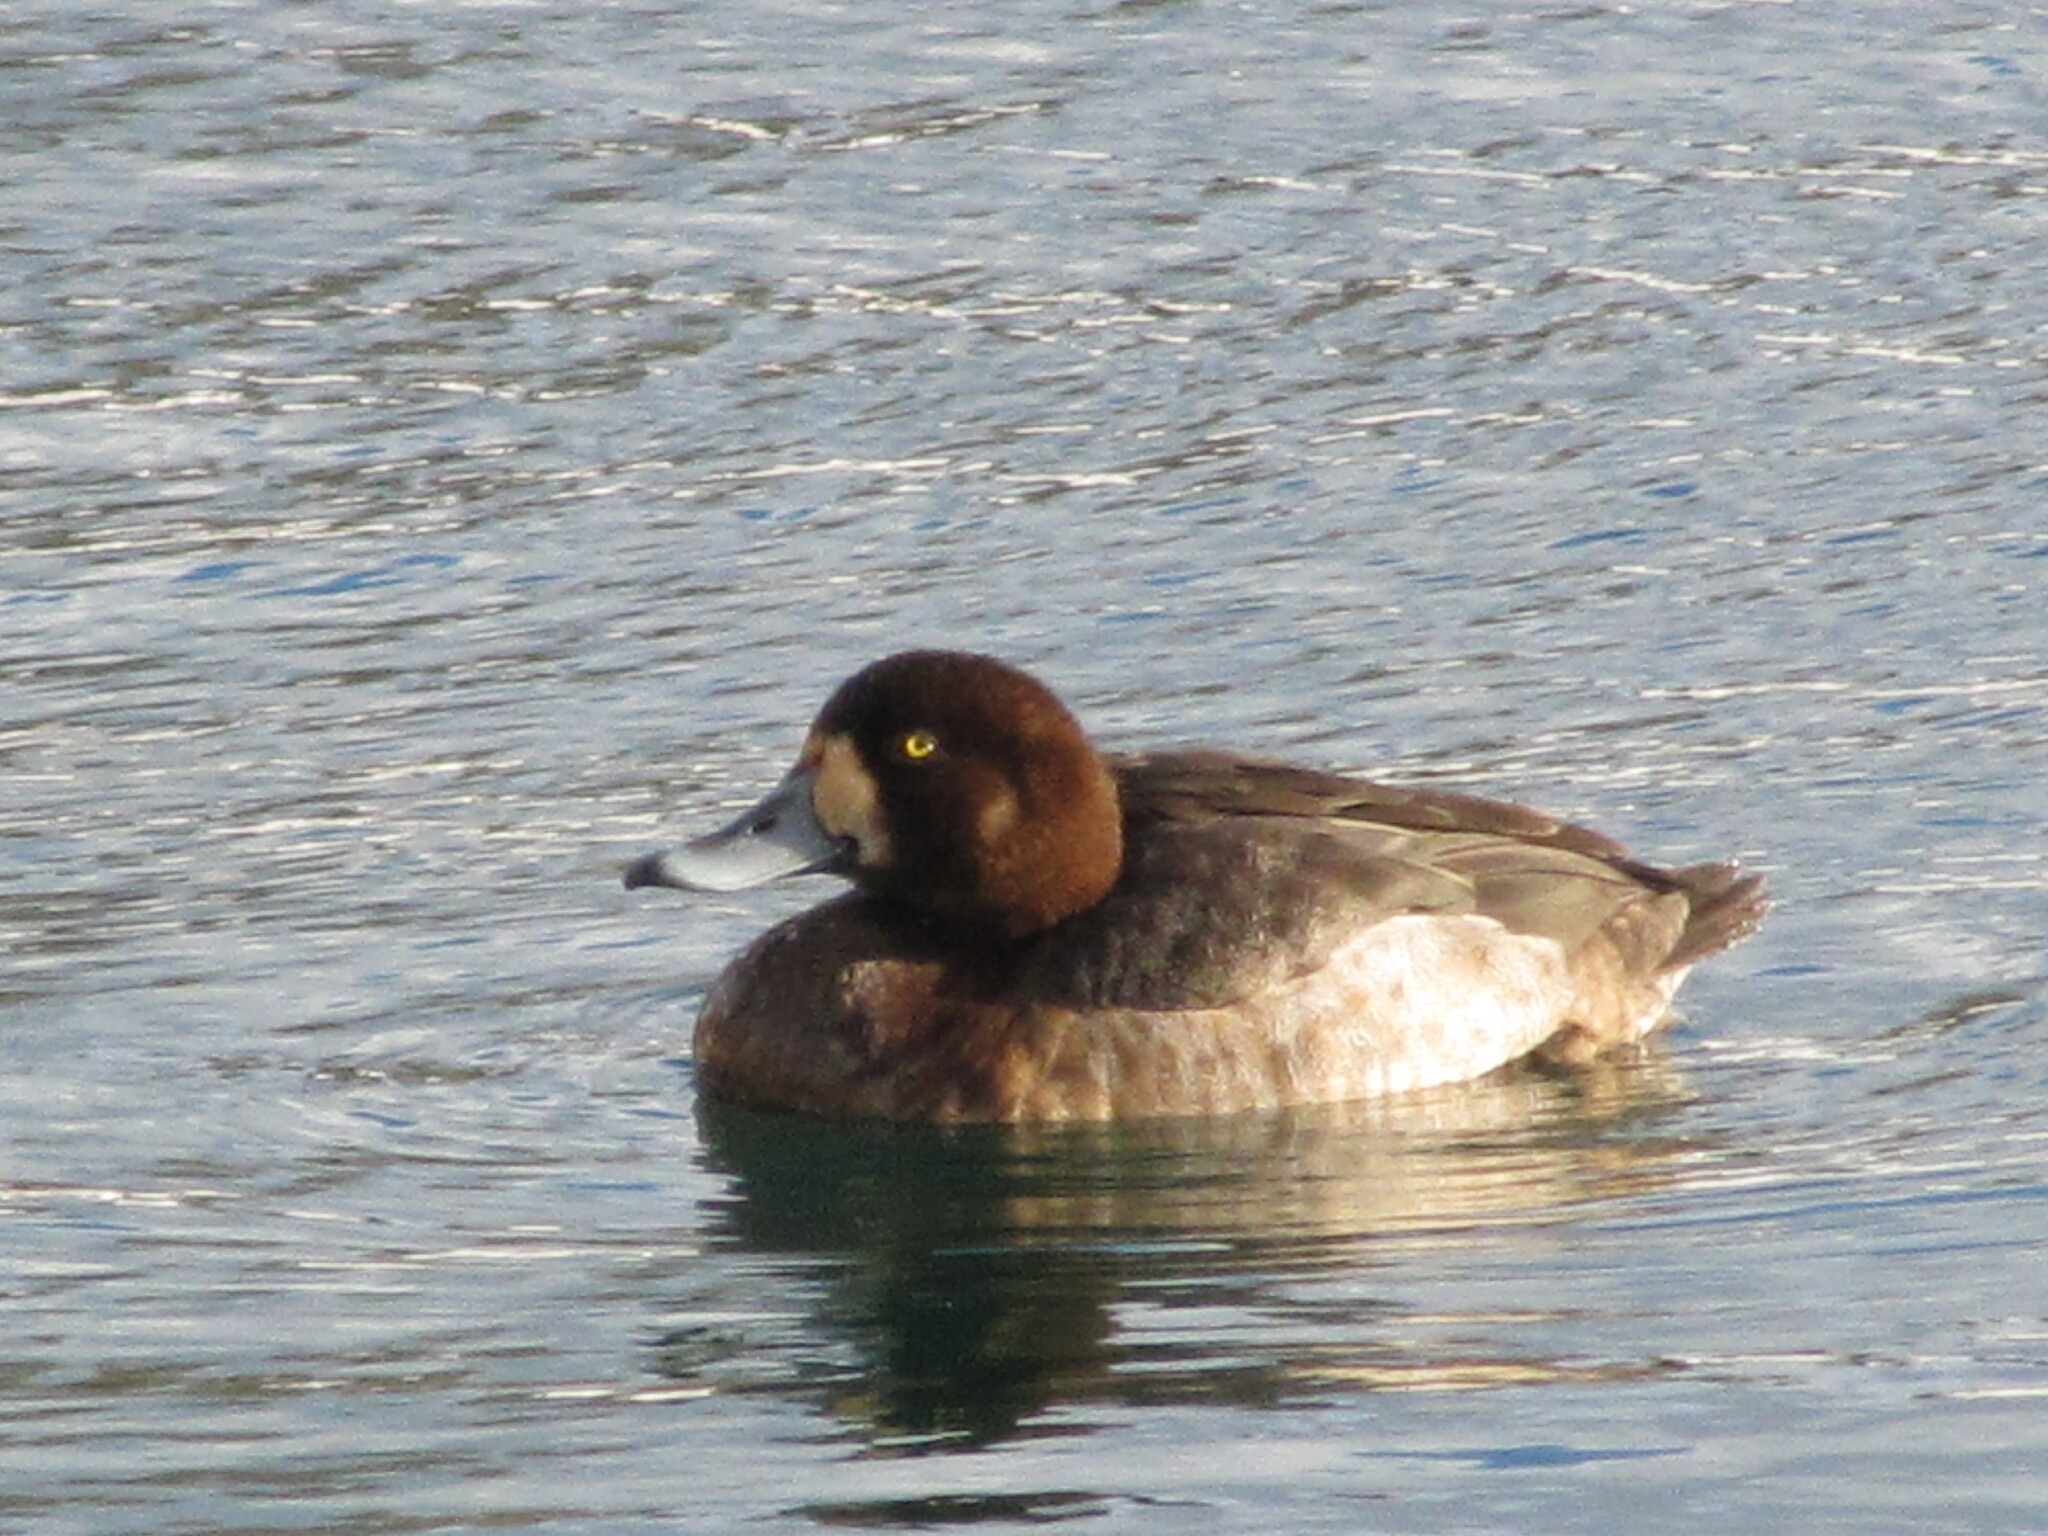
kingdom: Animalia
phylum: Chordata
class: Aves
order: Anseriformes
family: Anatidae
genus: Aythya
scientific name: Aythya marila
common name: Greater scaup
